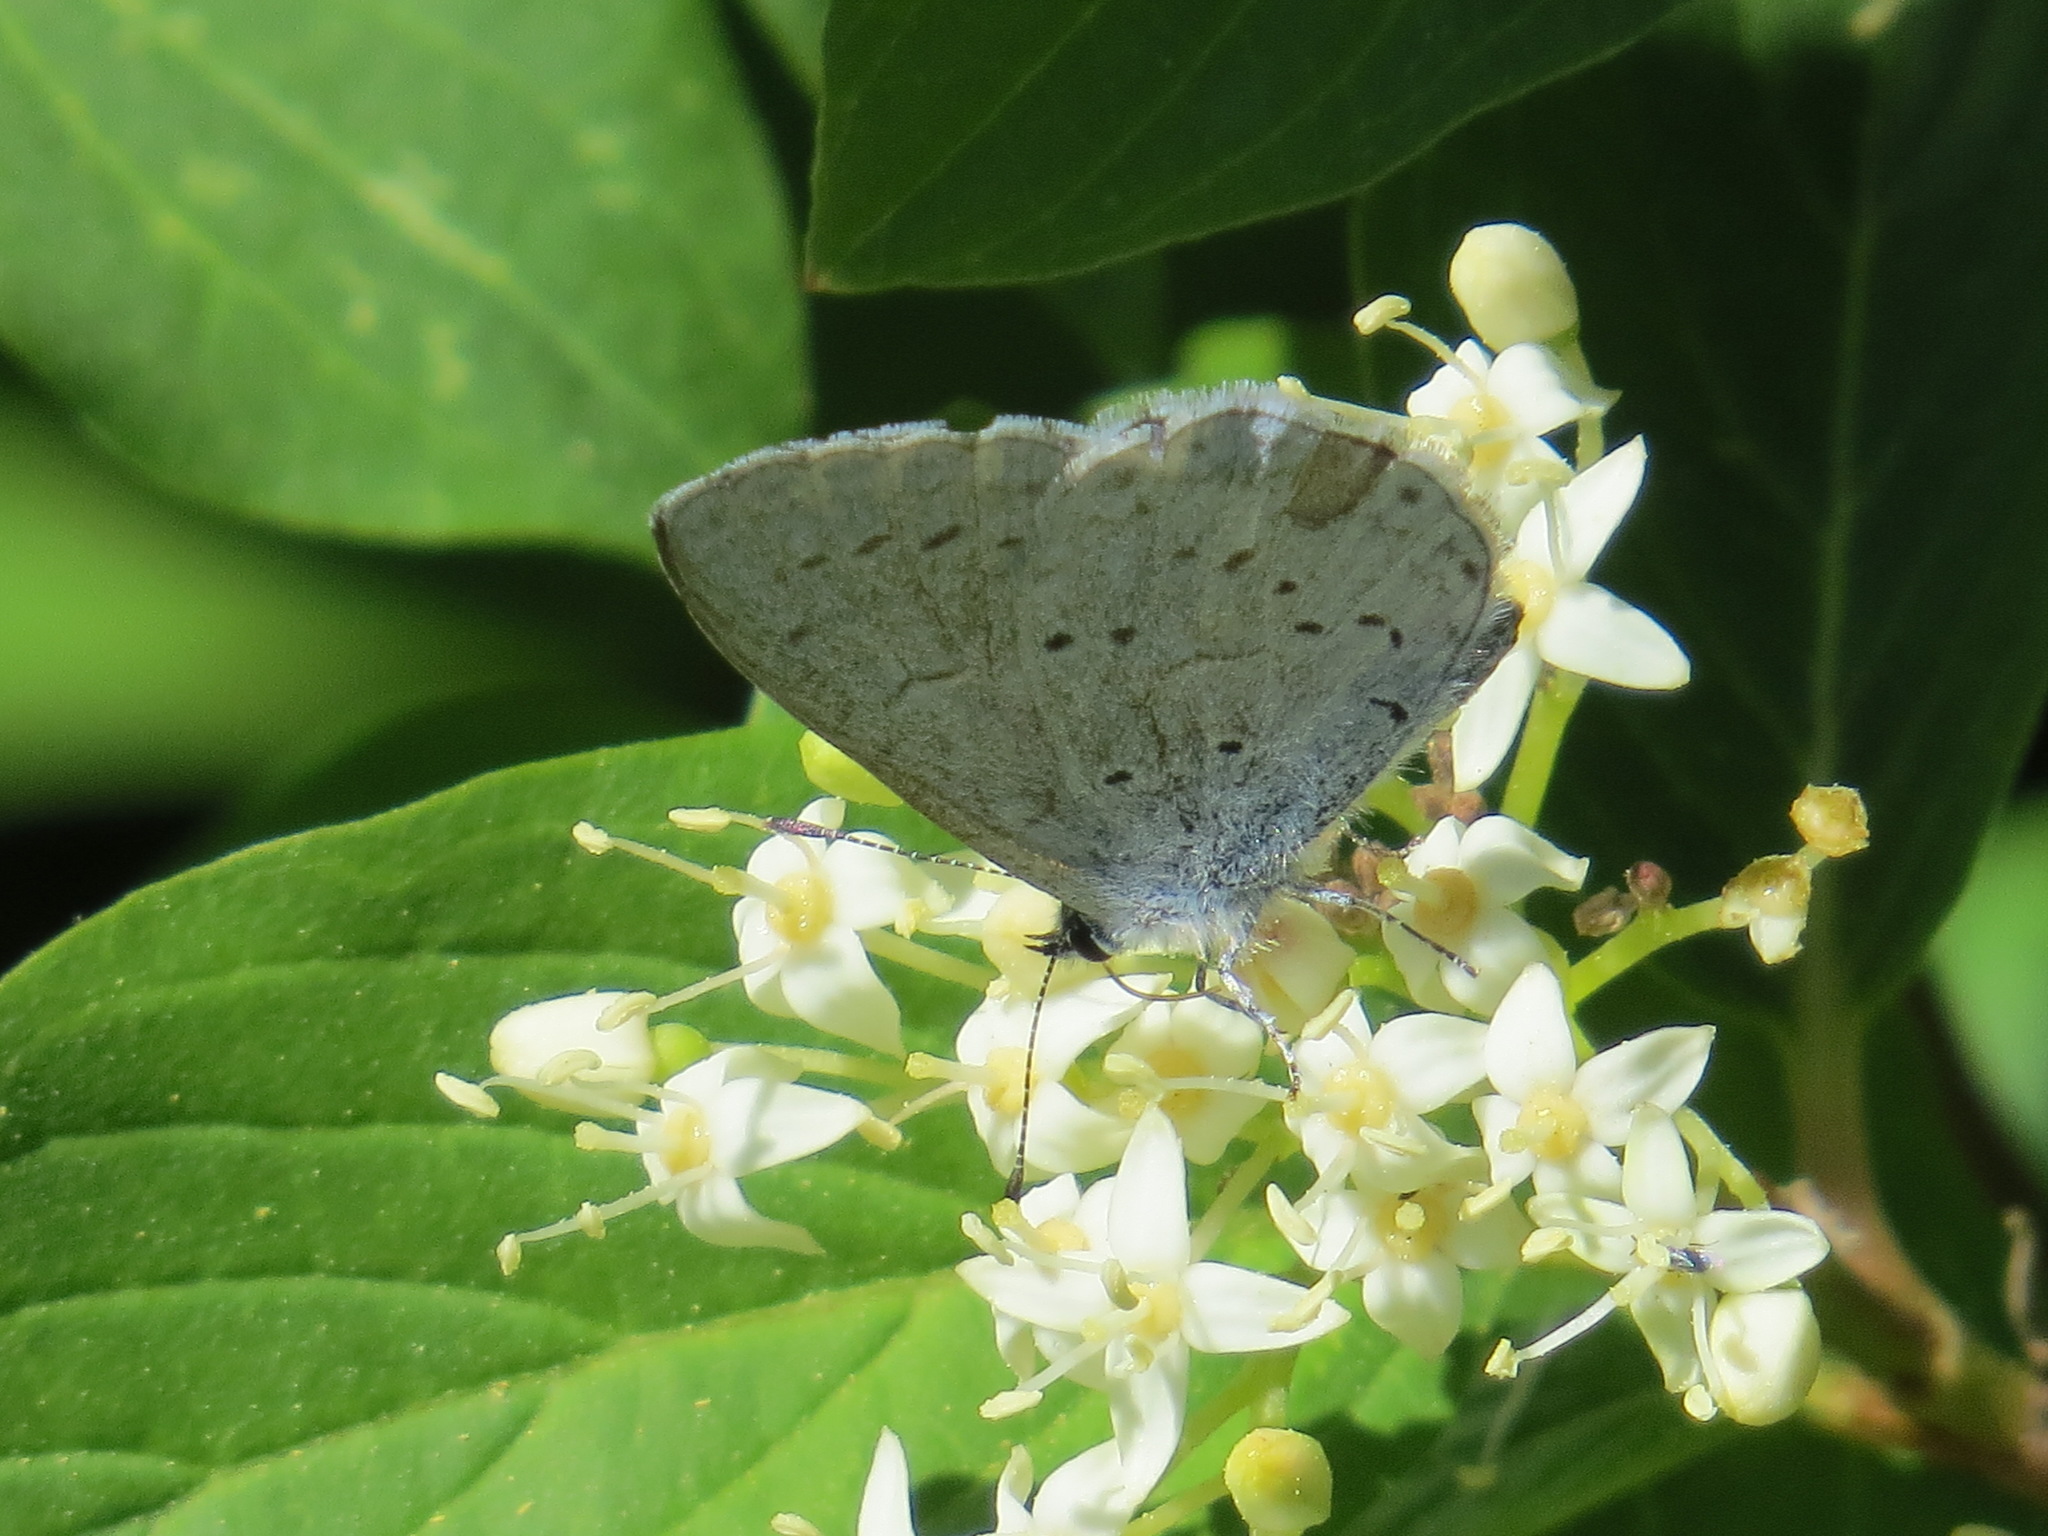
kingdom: Animalia
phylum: Arthropoda
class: Insecta
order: Lepidoptera
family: Lycaenidae
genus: Celastrina
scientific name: Celastrina ladon
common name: Spring azure
